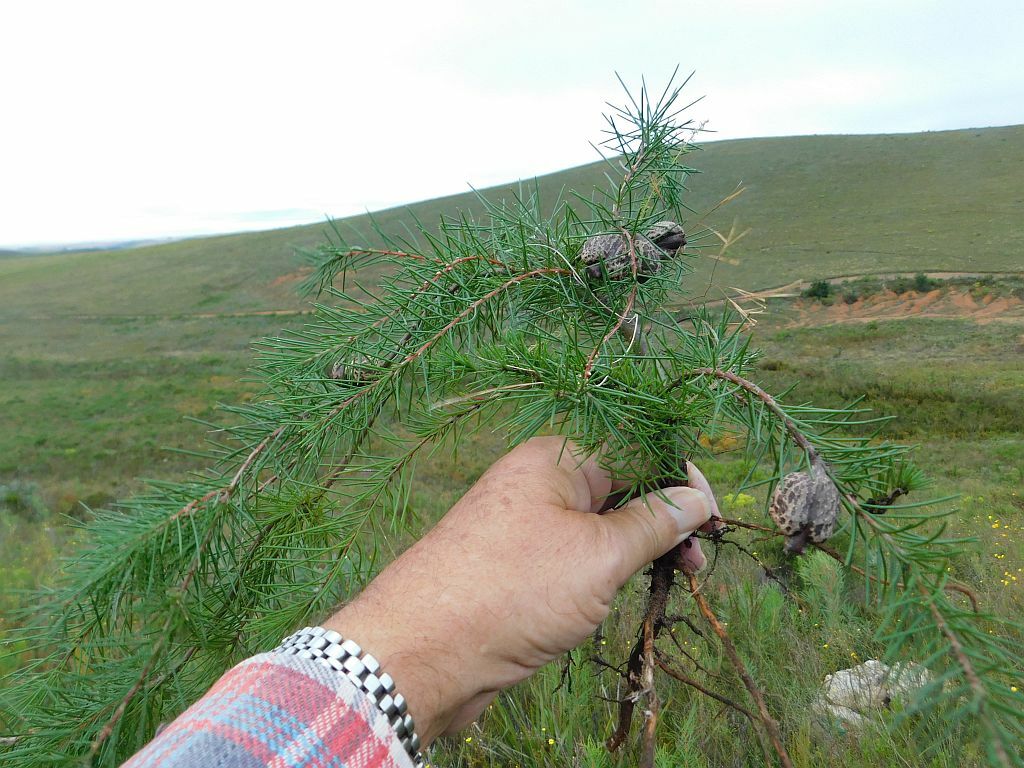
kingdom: Plantae
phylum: Tracheophyta
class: Magnoliopsida
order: Proteales
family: Proteaceae
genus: Hakea
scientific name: Hakea sericea
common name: Needle bush
